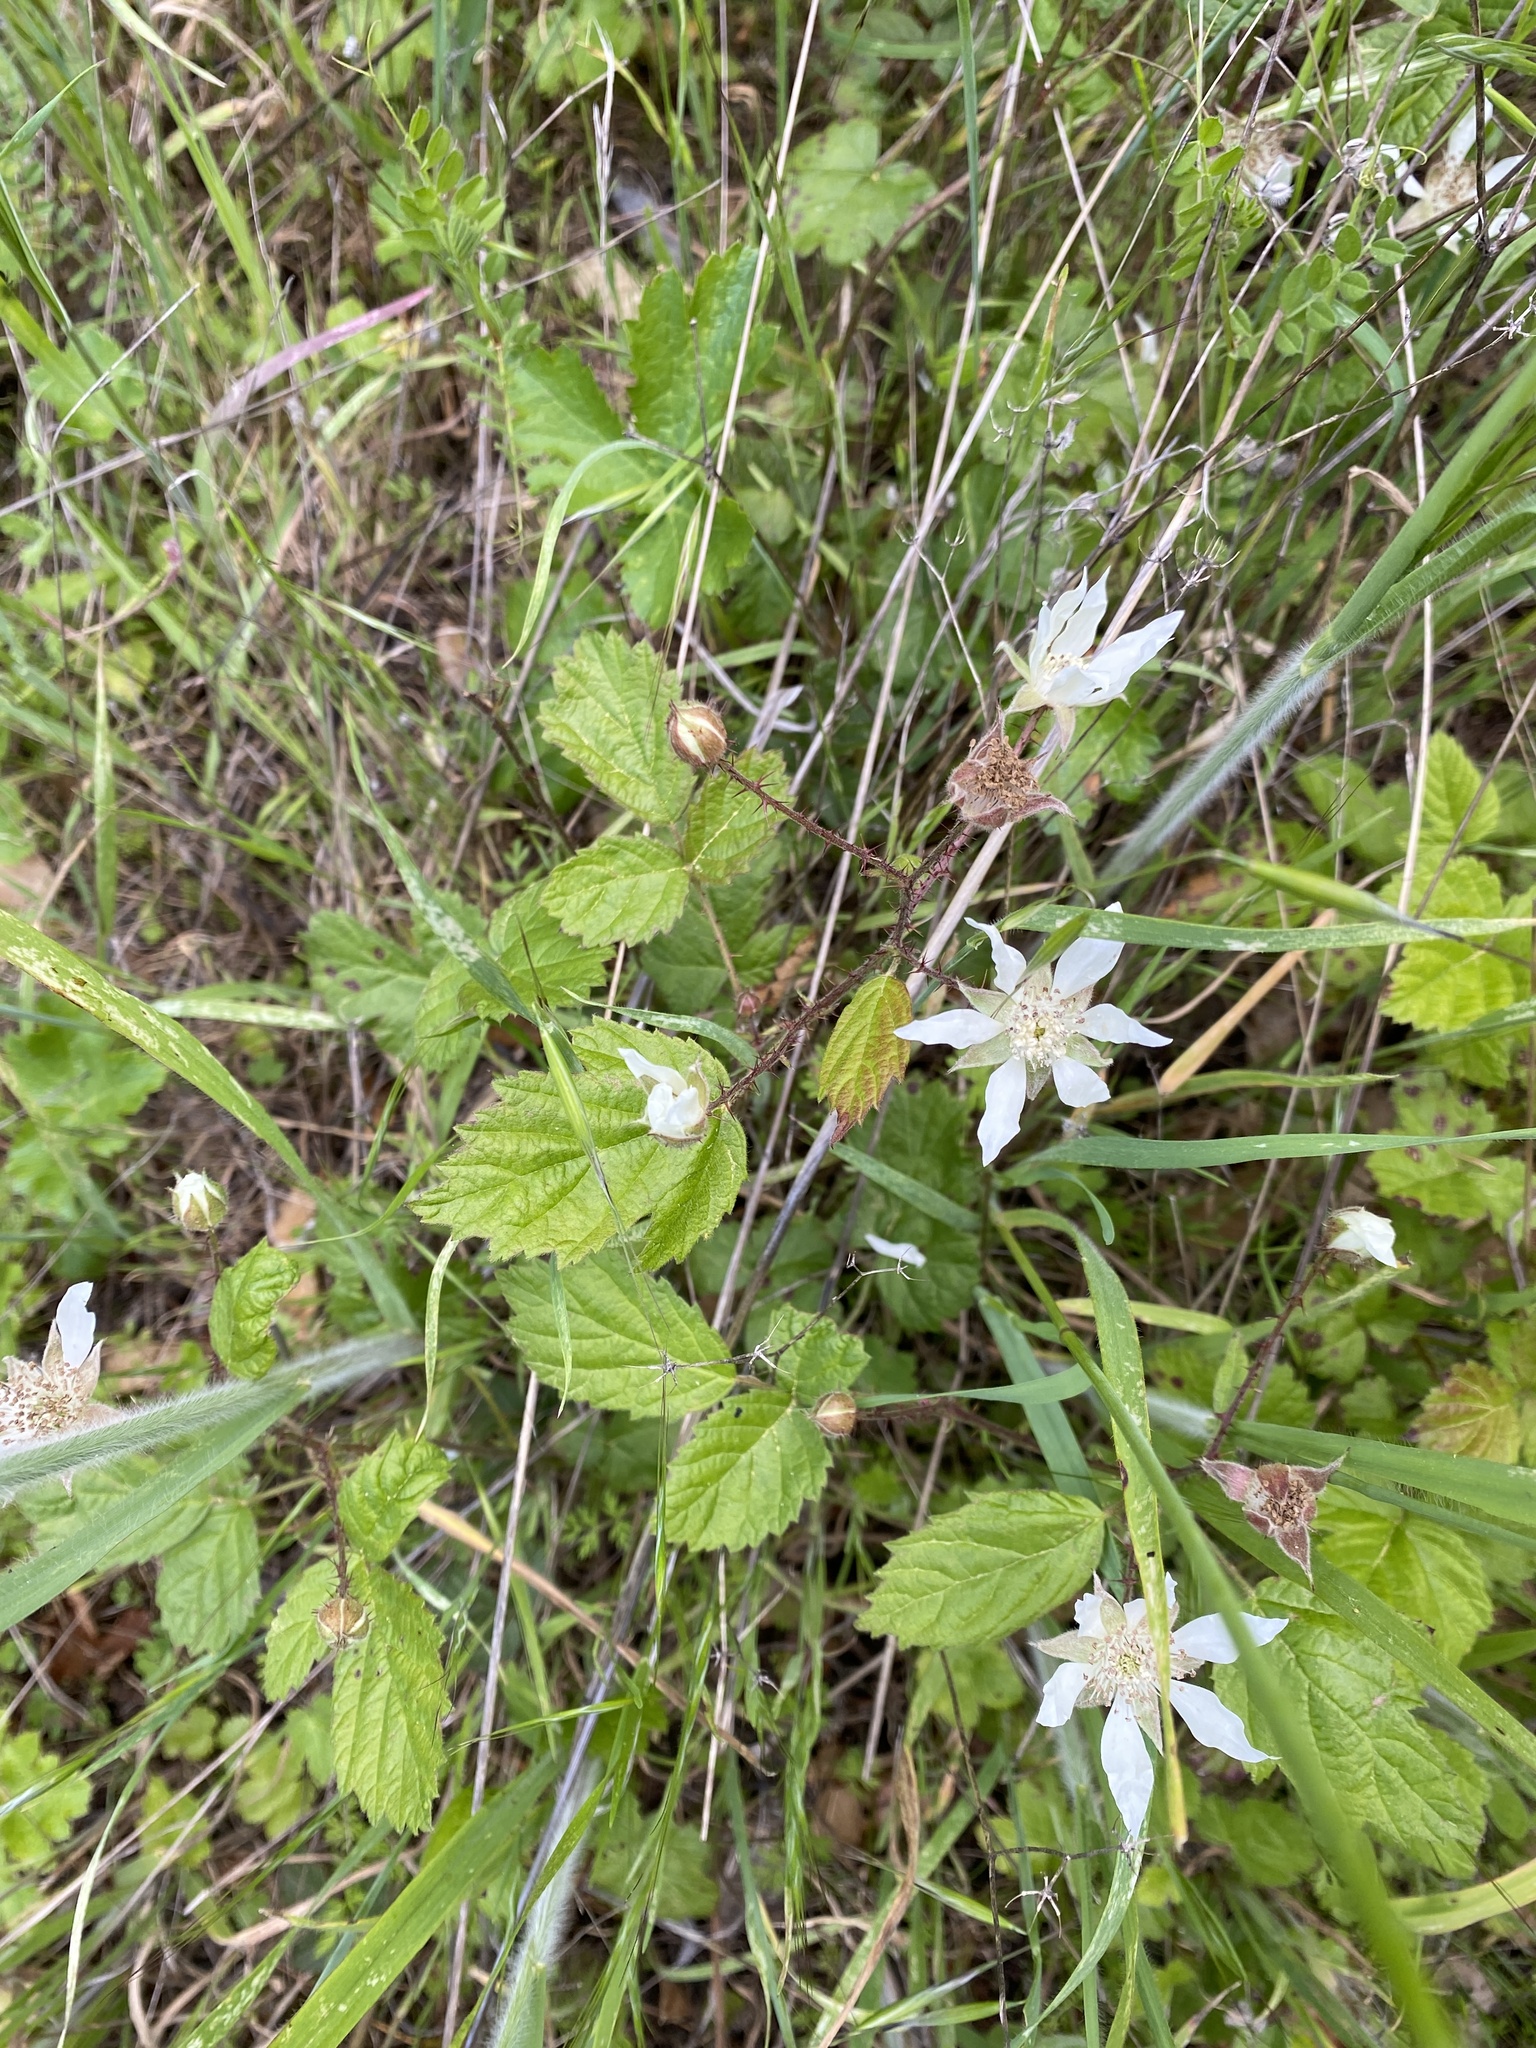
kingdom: Plantae
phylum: Tracheophyta
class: Magnoliopsida
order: Rosales
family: Rosaceae
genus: Rubus
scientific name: Rubus ursinus
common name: Pacific blackberry
